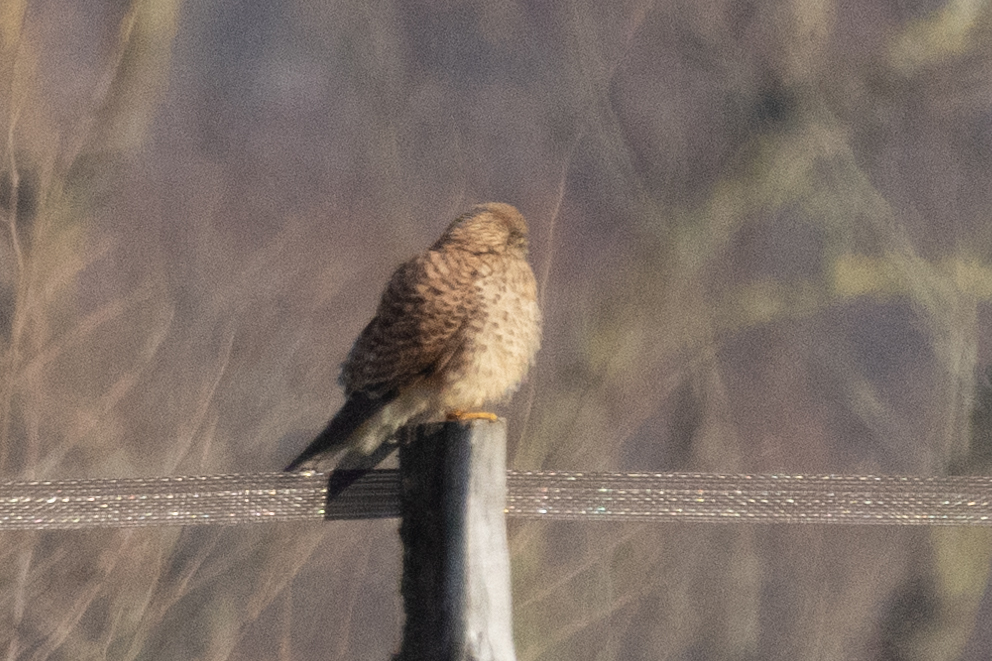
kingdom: Animalia
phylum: Chordata
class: Aves
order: Falconiformes
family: Falconidae
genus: Falco
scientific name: Falco tinnunculus
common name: Common kestrel
